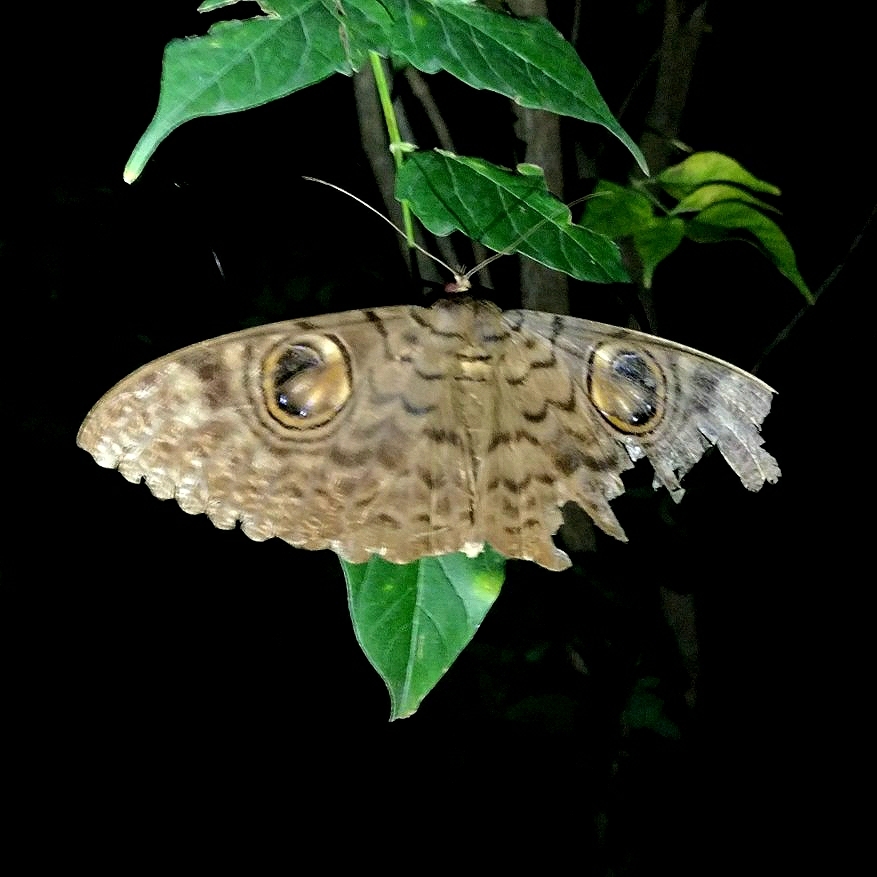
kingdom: Animalia
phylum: Arthropoda
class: Insecta
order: Lepidoptera
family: Erebidae
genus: Erebus
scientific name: Erebus macrops
